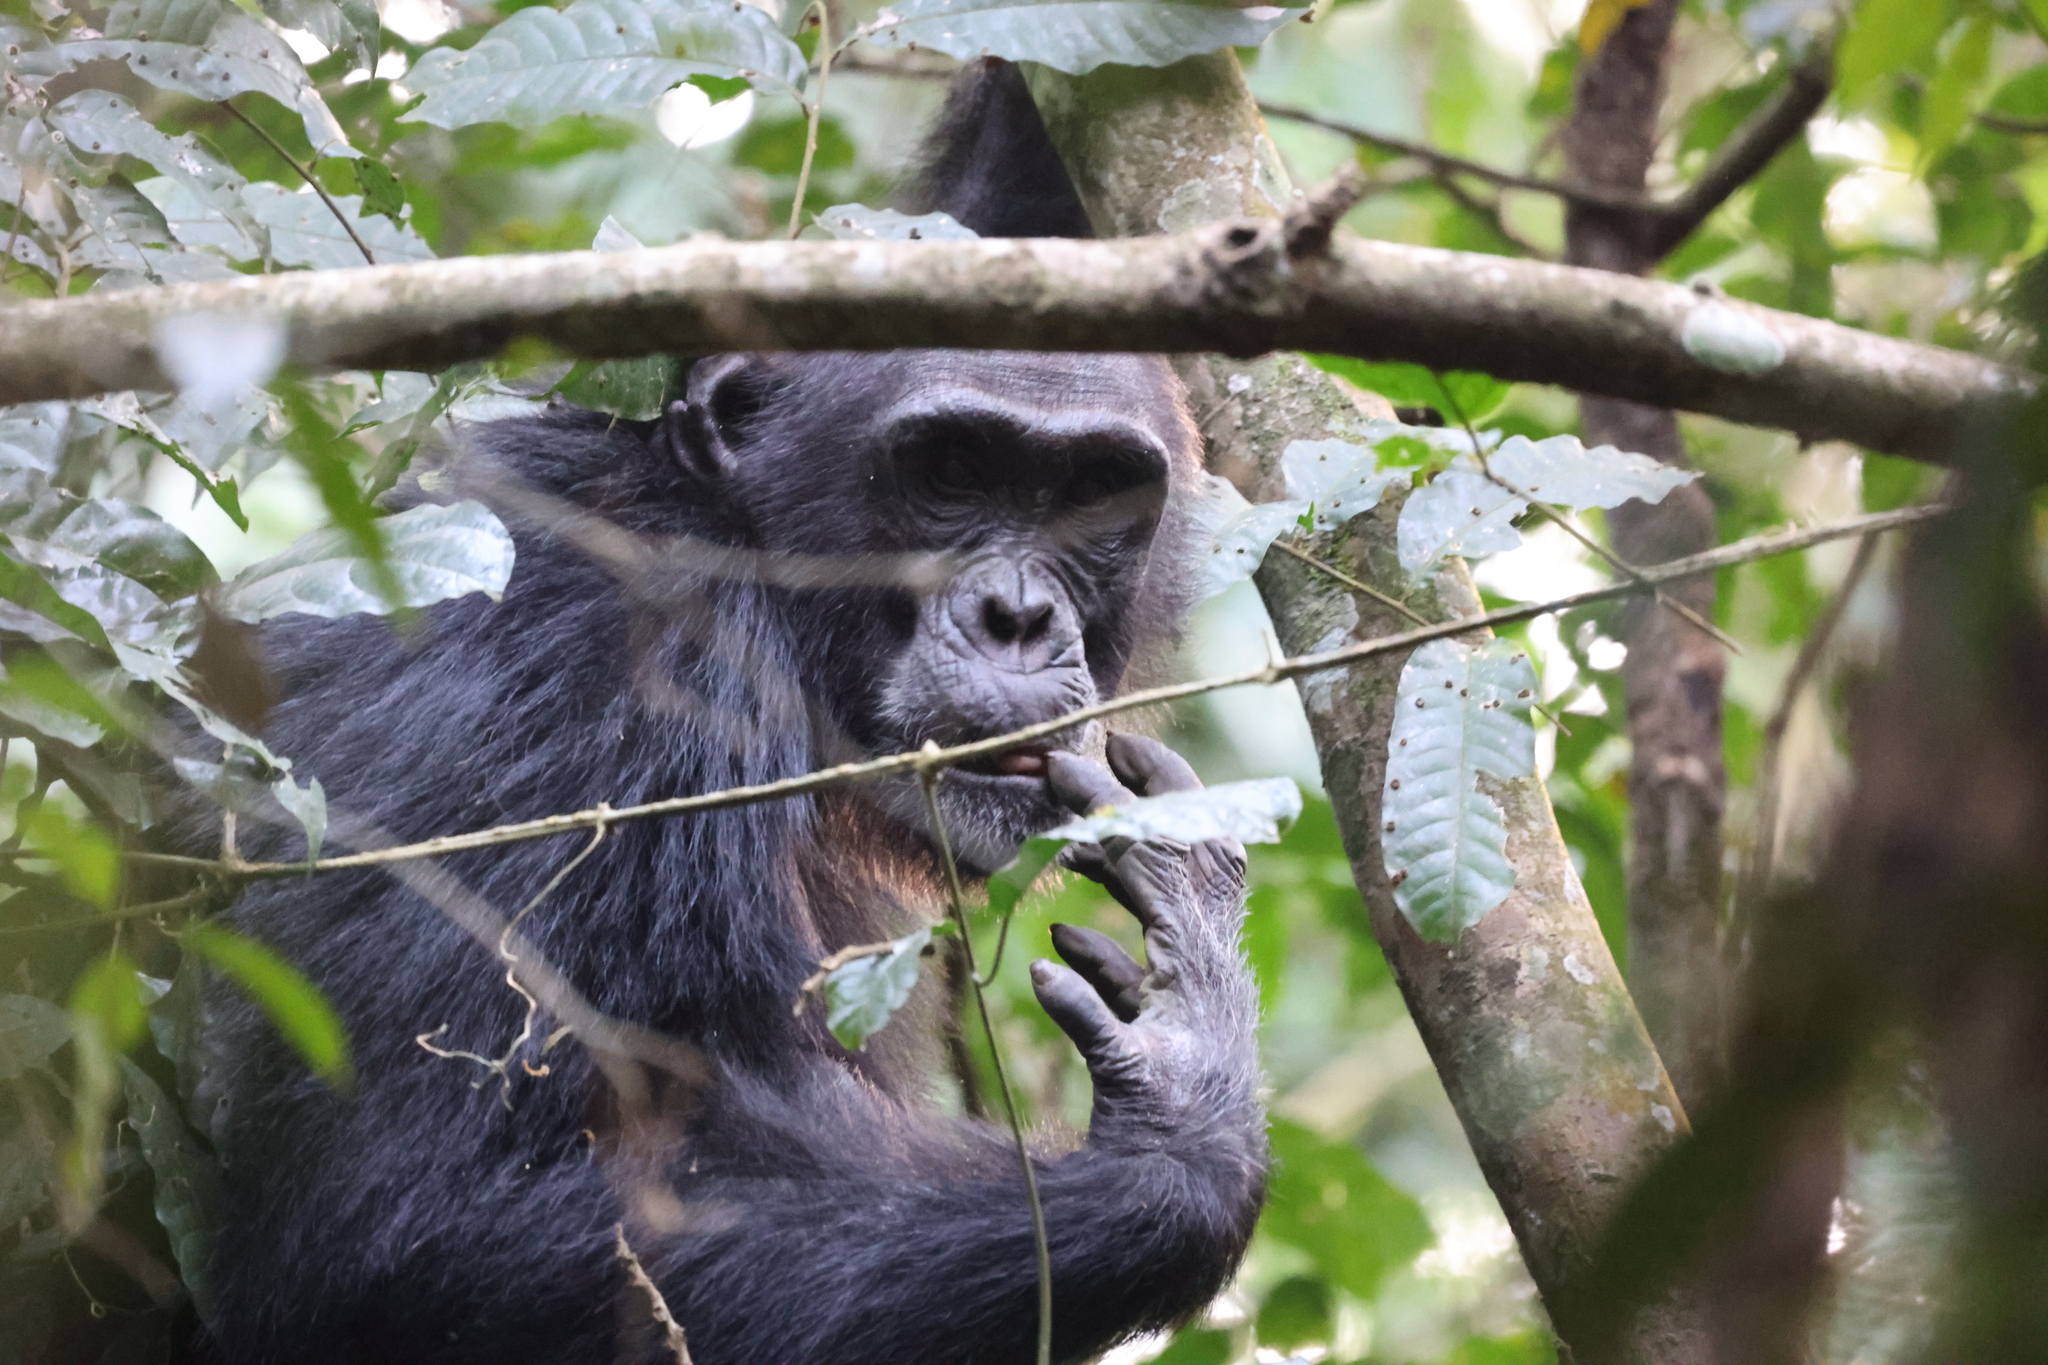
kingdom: Animalia
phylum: Chordata
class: Mammalia
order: Primates
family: Hominidae
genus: Pan
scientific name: Pan troglodytes
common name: Chimpanzee
